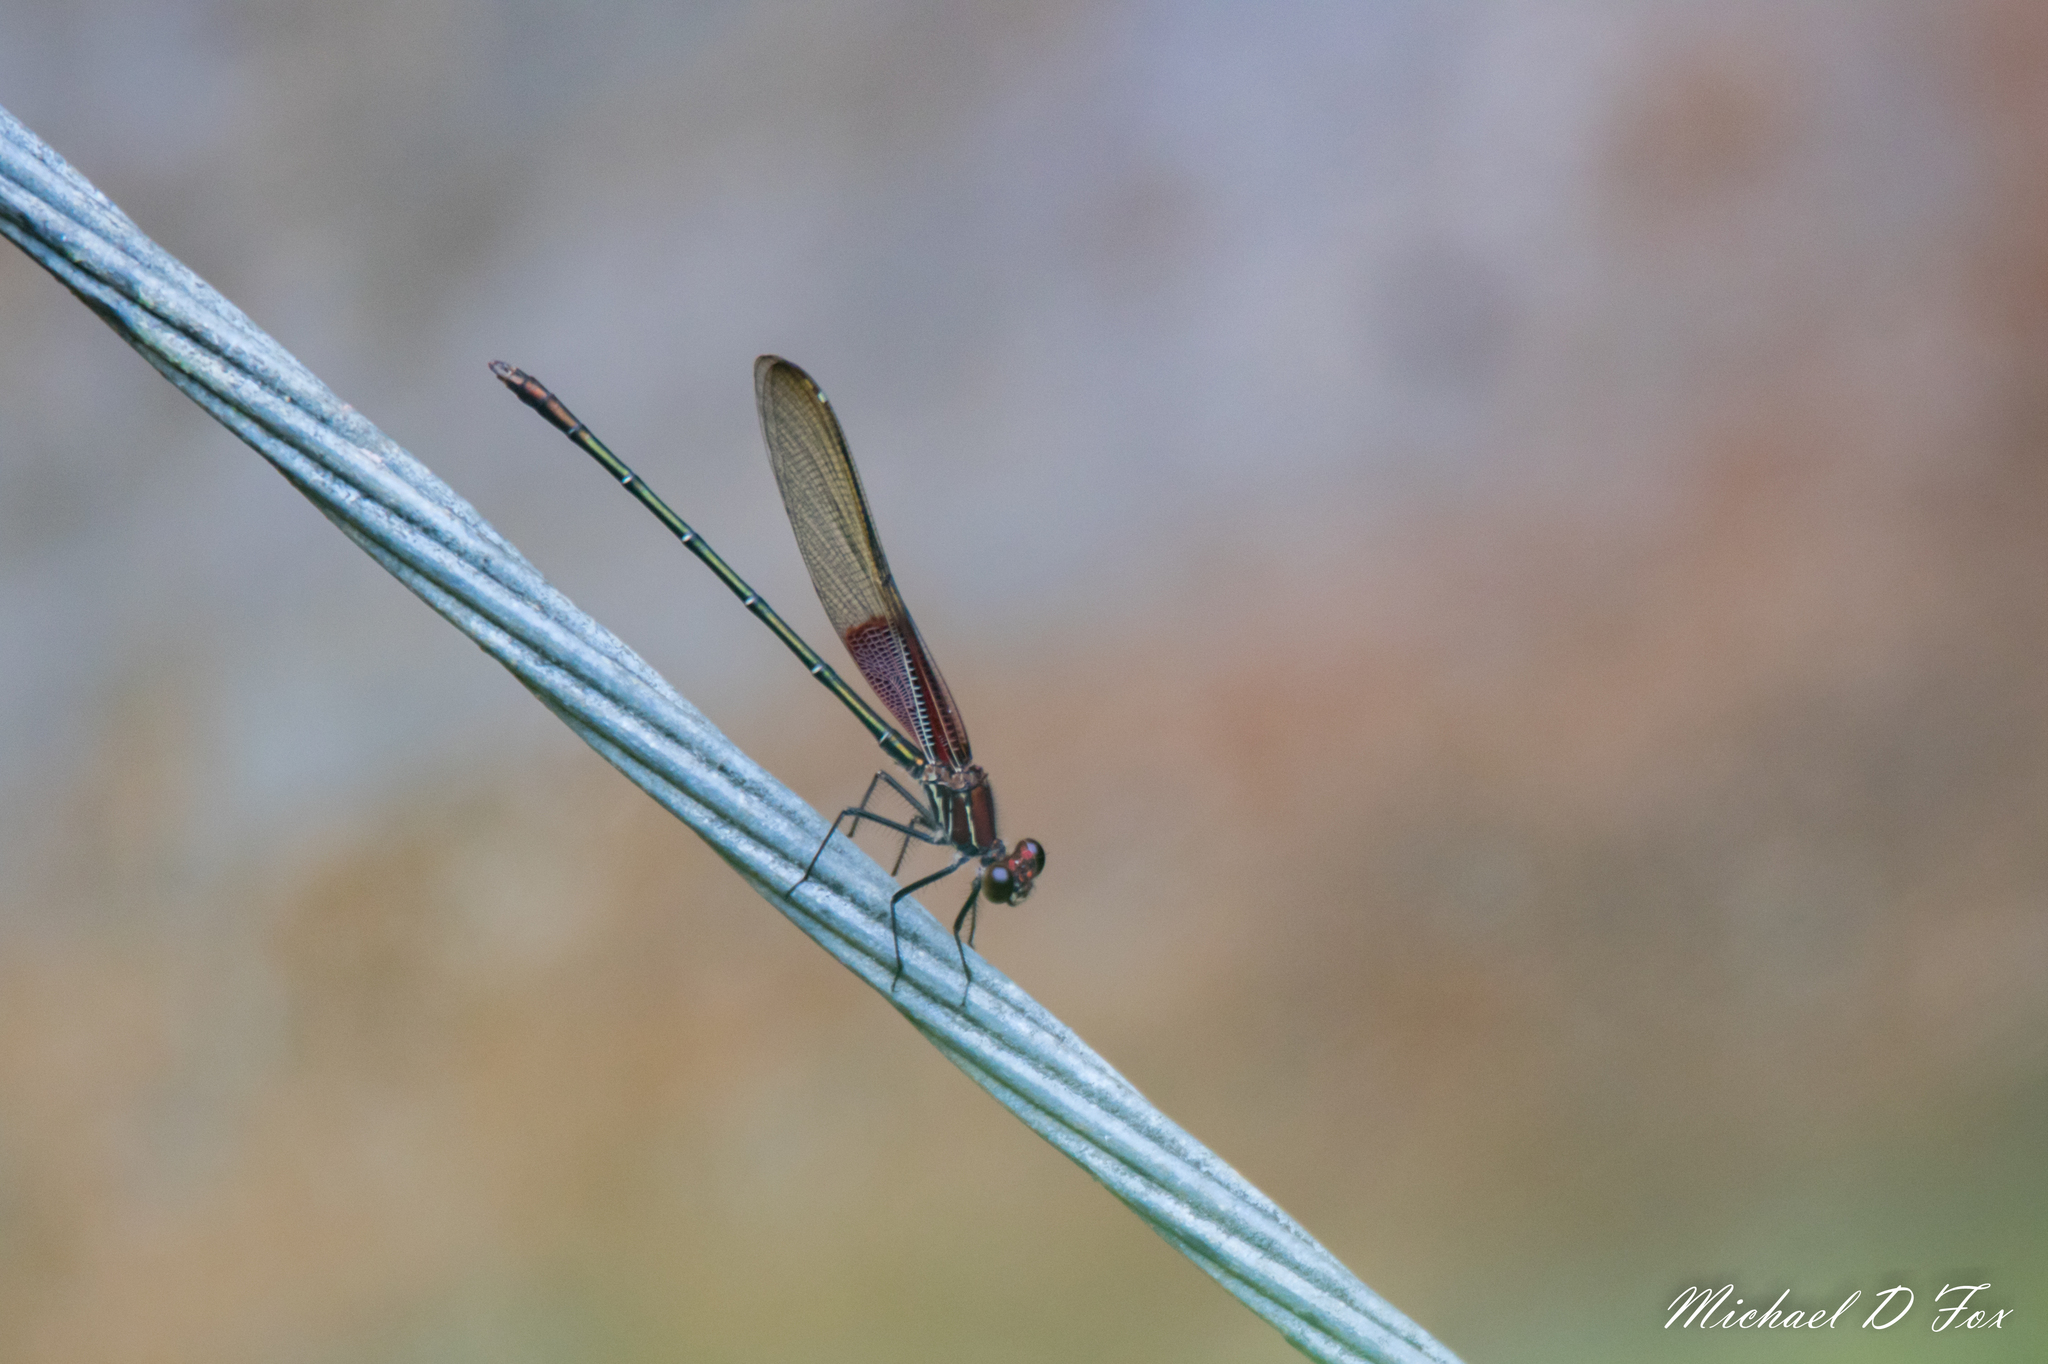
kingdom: Animalia
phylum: Arthropoda
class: Insecta
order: Odonata
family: Calopterygidae
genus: Hetaerina
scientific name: Hetaerina americana
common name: American rubyspot
